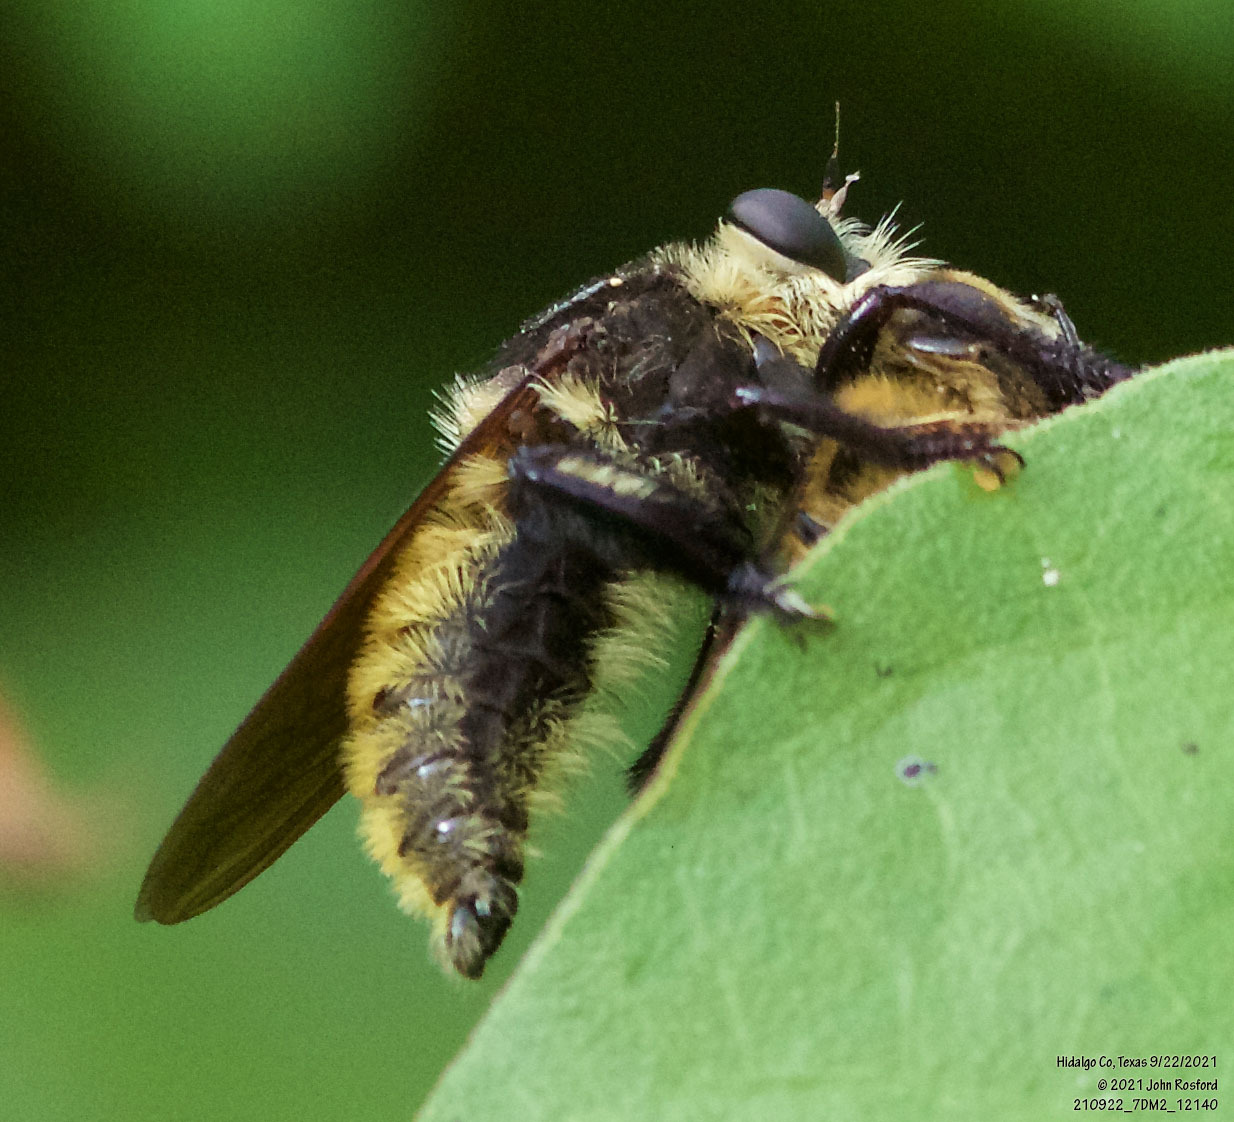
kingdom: Animalia
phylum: Arthropoda
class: Insecta
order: Diptera
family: Asilidae
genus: Mallophora
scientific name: Mallophora fautrix
